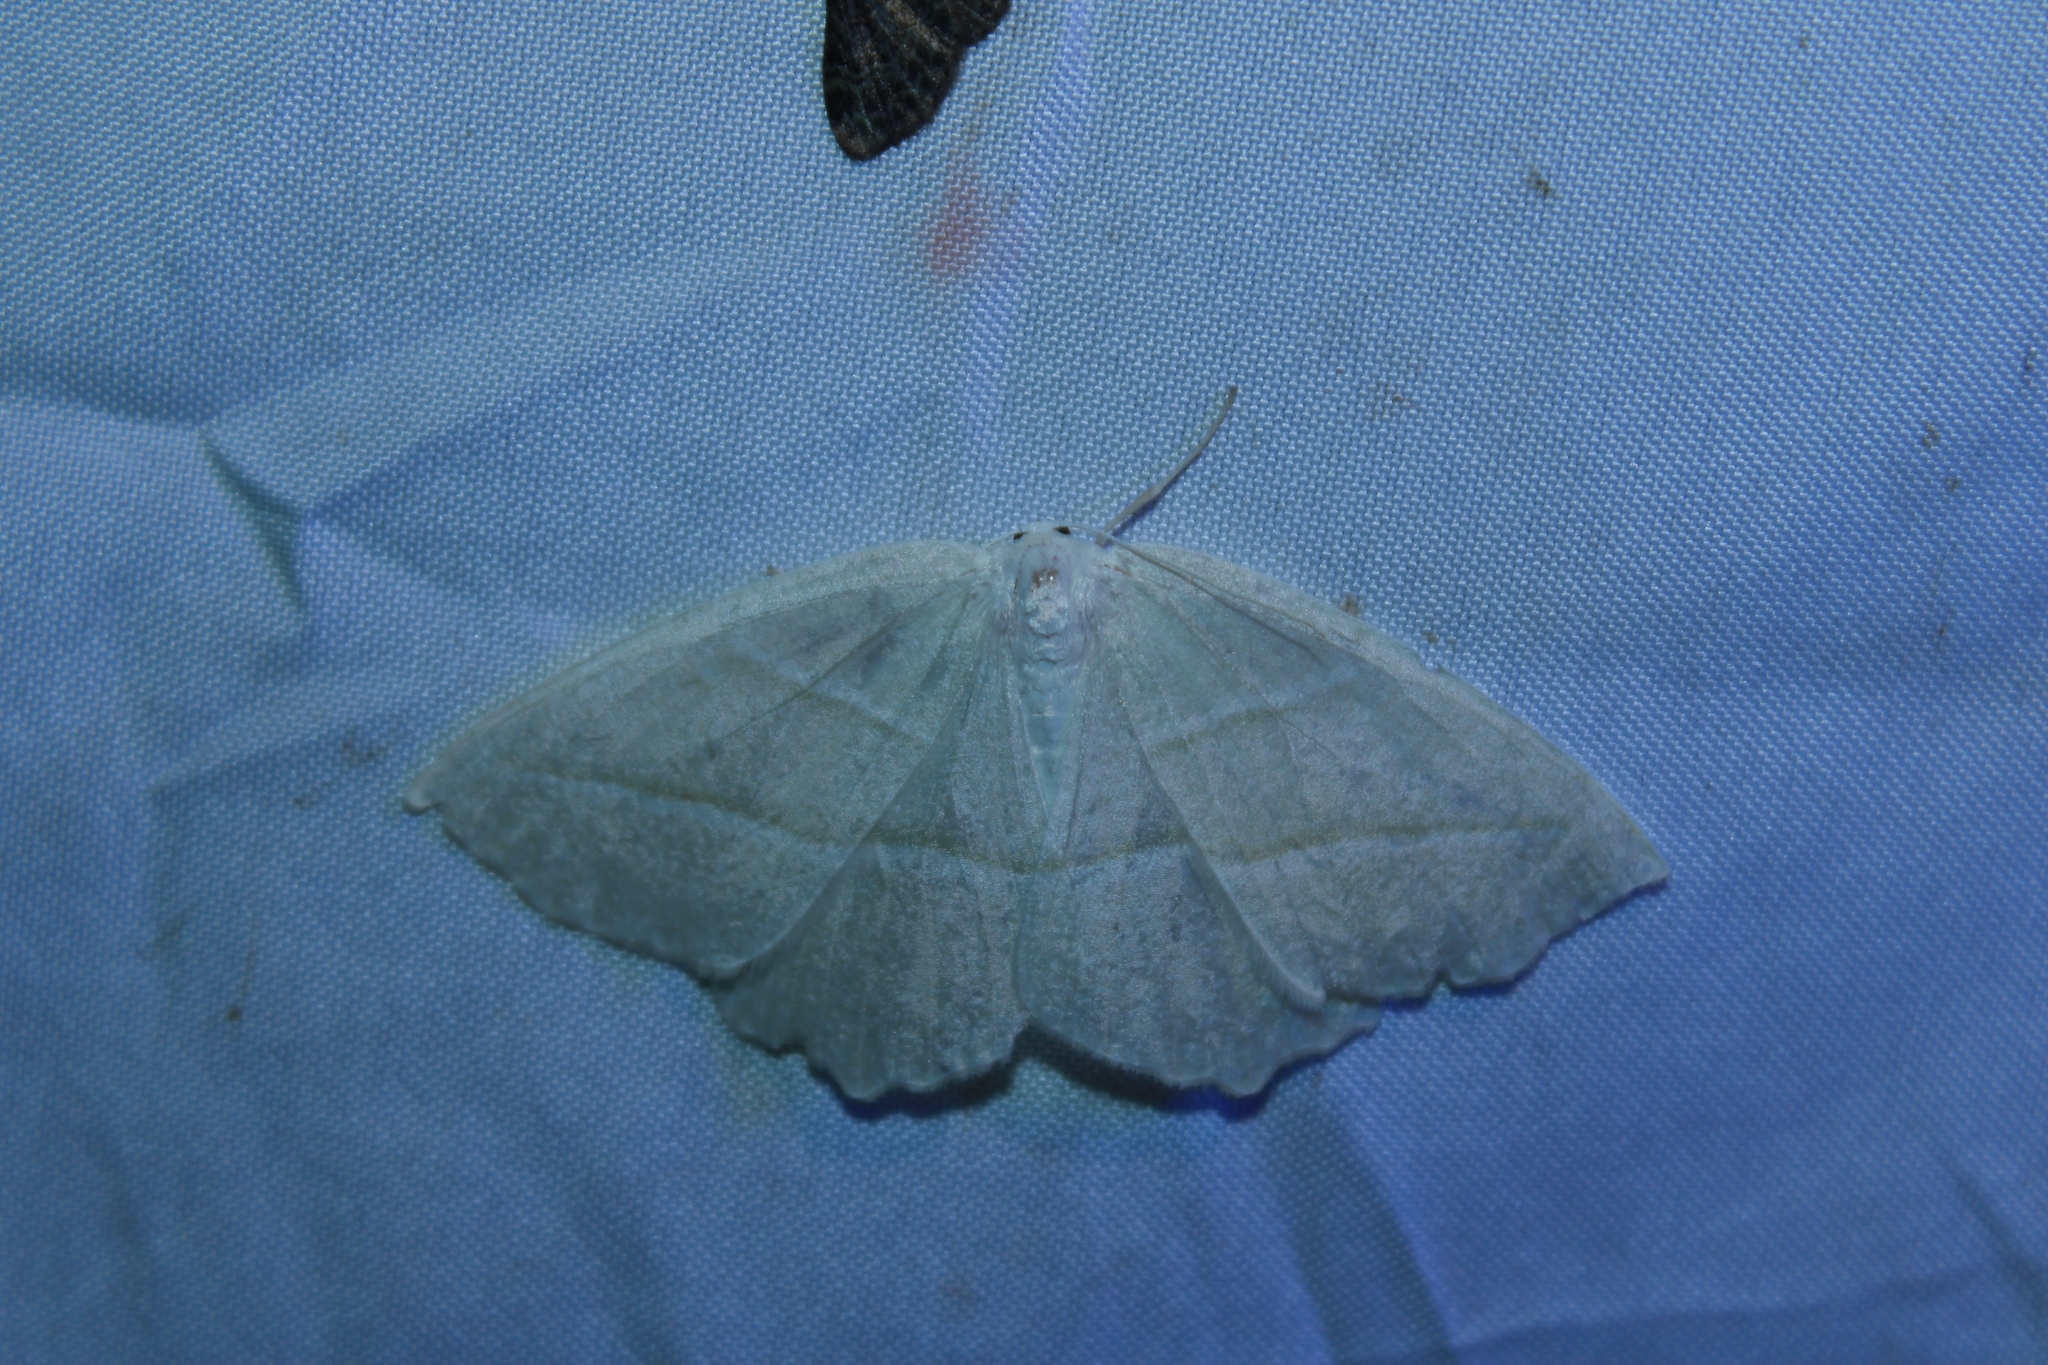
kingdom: Animalia
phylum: Arthropoda
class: Insecta
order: Lepidoptera
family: Geometridae
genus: Campaea
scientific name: Campaea perlata
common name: Fringed looper
